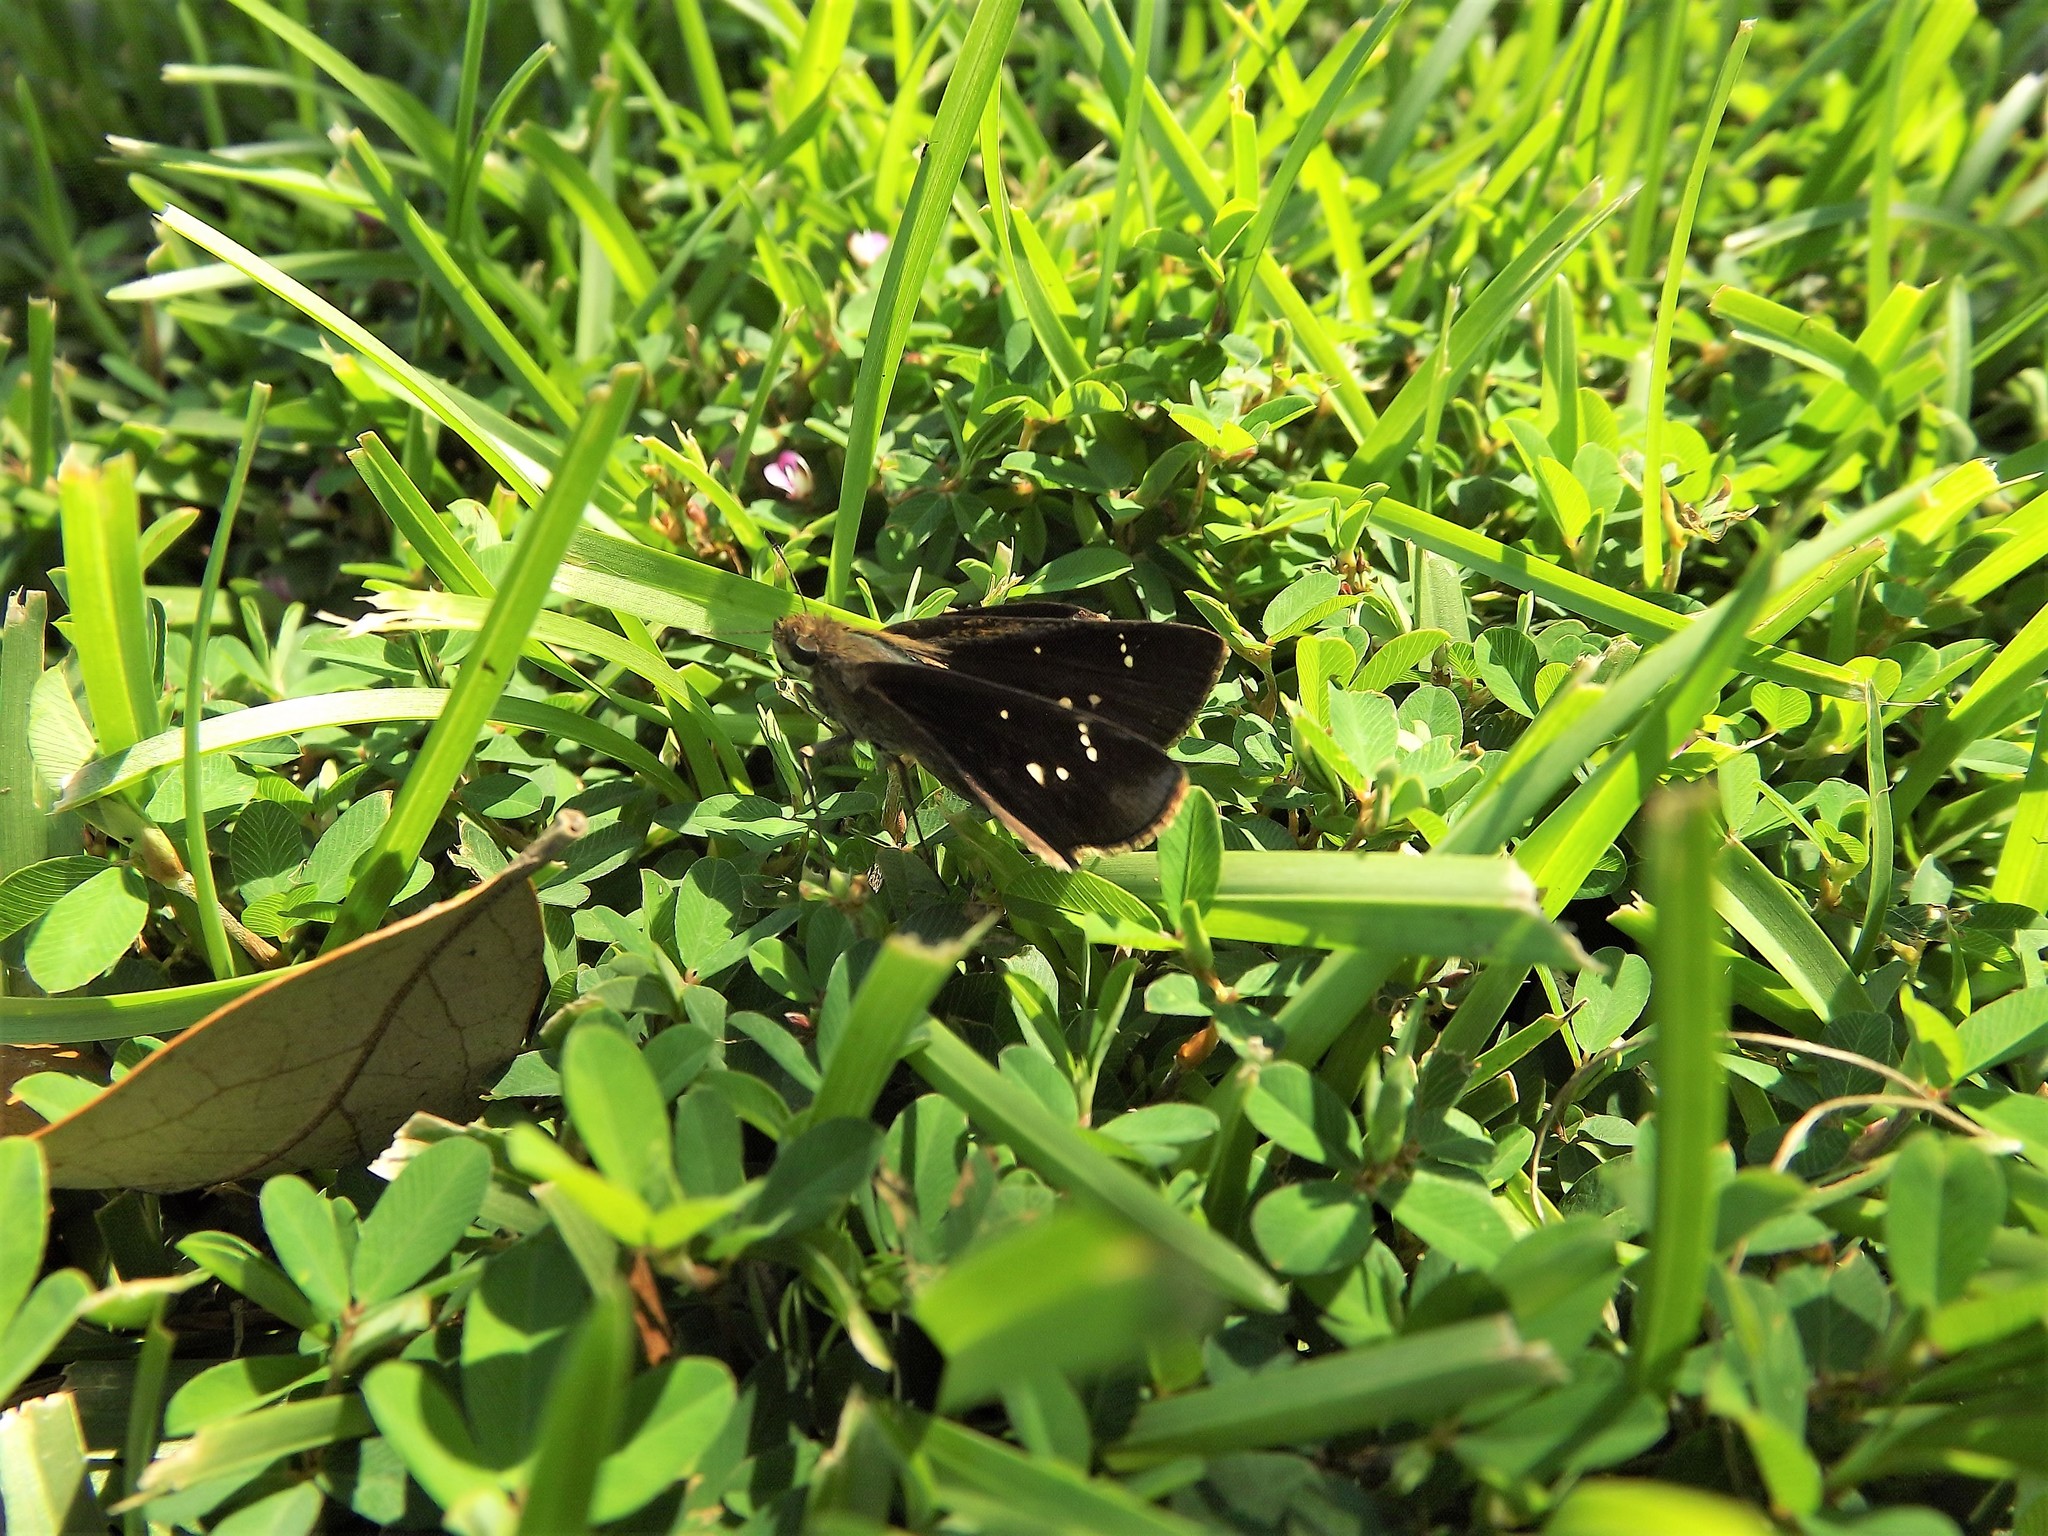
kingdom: Animalia
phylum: Arthropoda
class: Insecta
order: Lepidoptera
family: Hesperiidae
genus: Lerema
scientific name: Lerema accius
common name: Clouded skipper
